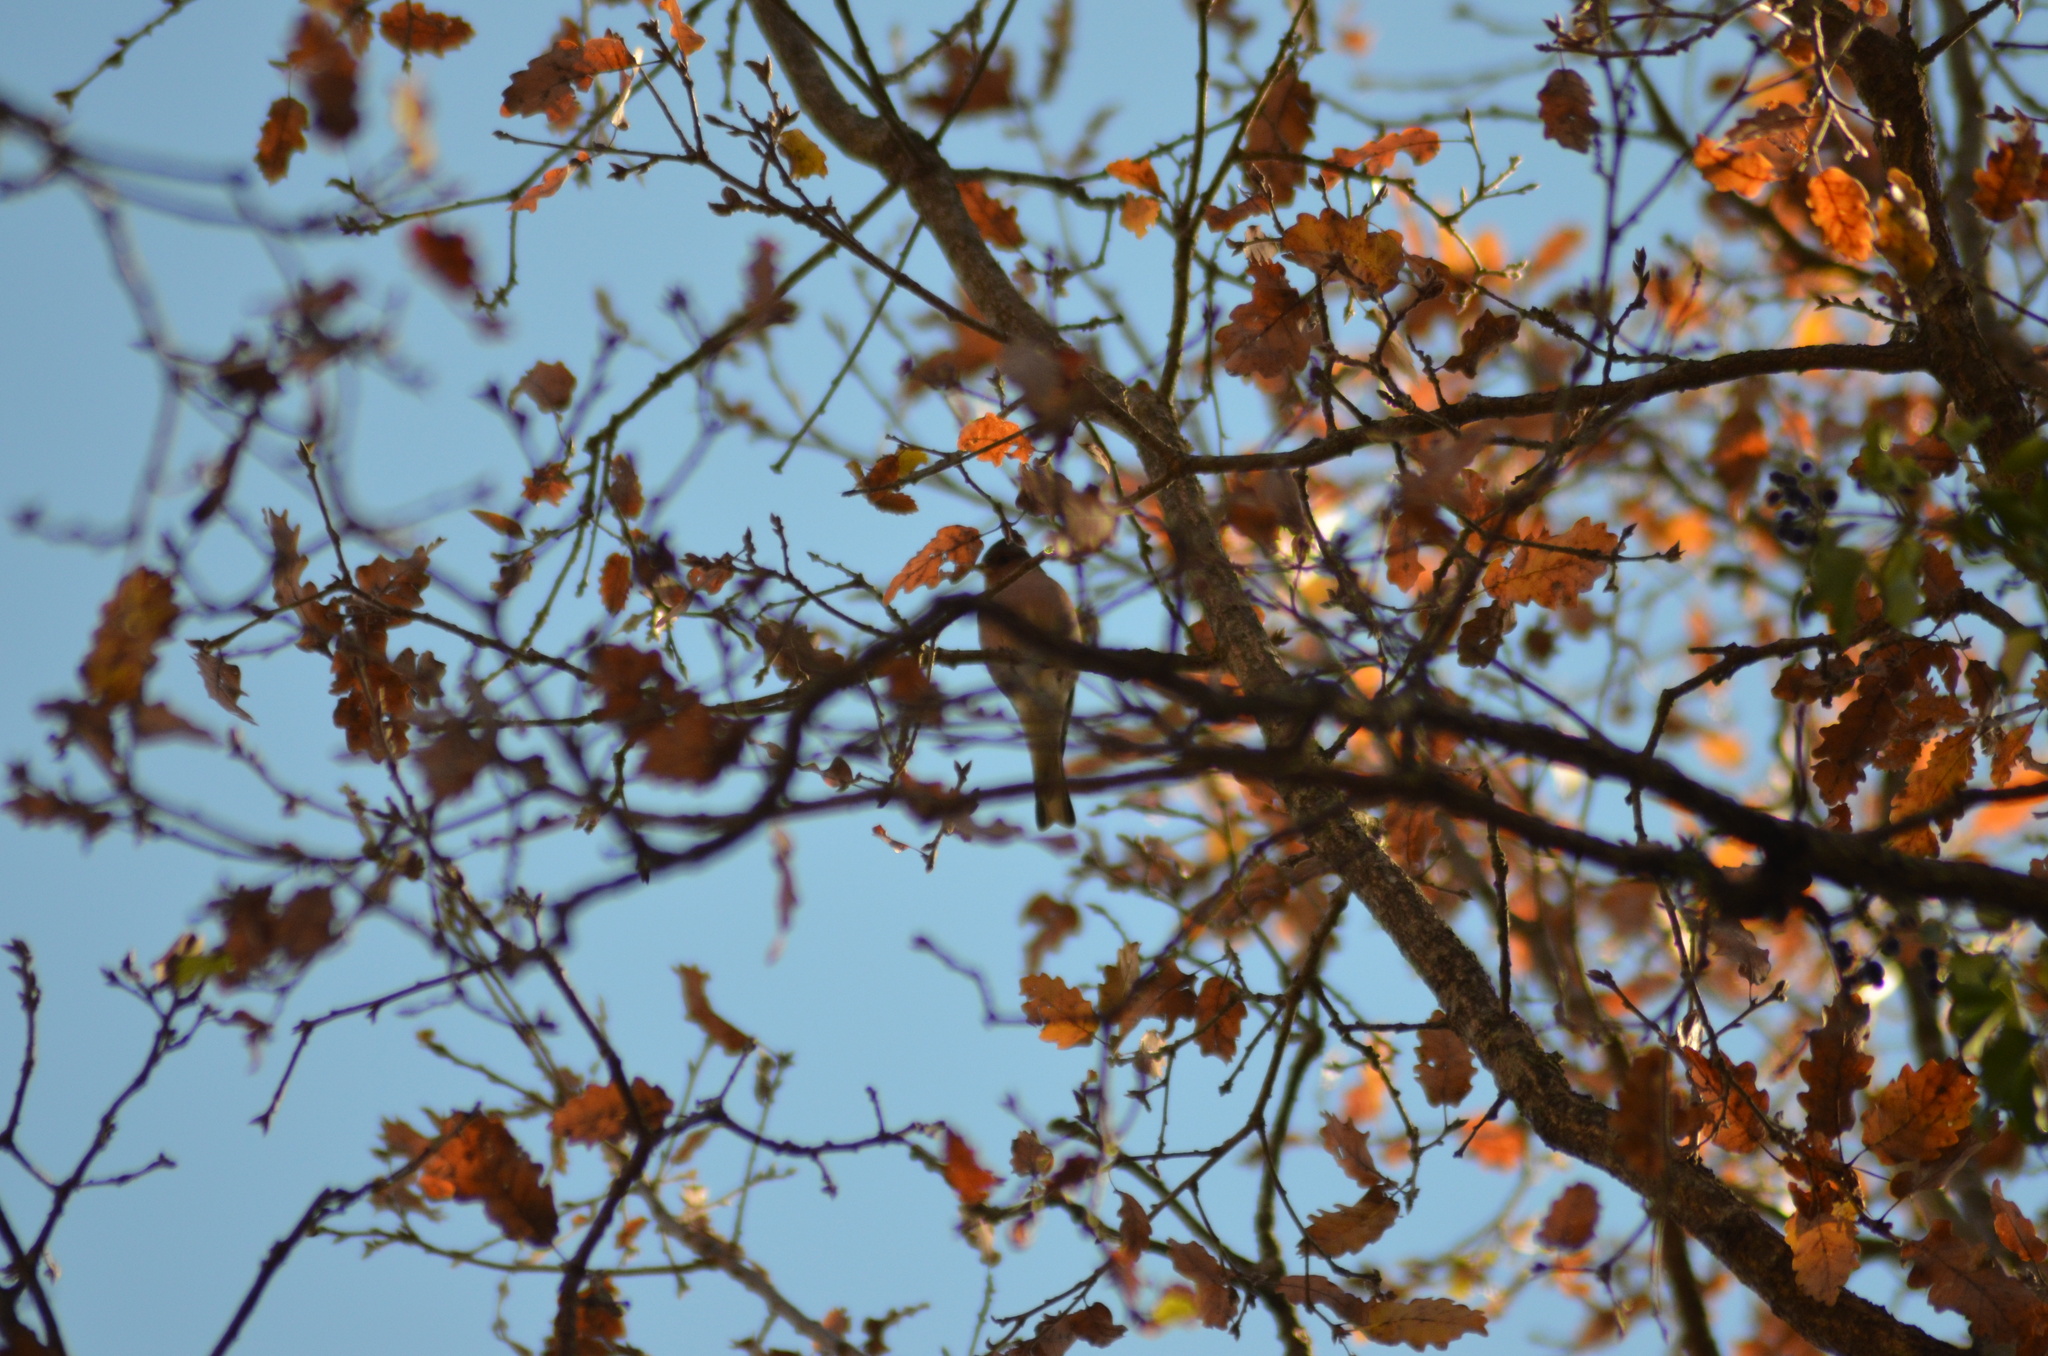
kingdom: Animalia
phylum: Chordata
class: Aves
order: Passeriformes
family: Fringillidae
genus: Fringilla
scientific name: Fringilla coelebs
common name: Common chaffinch
